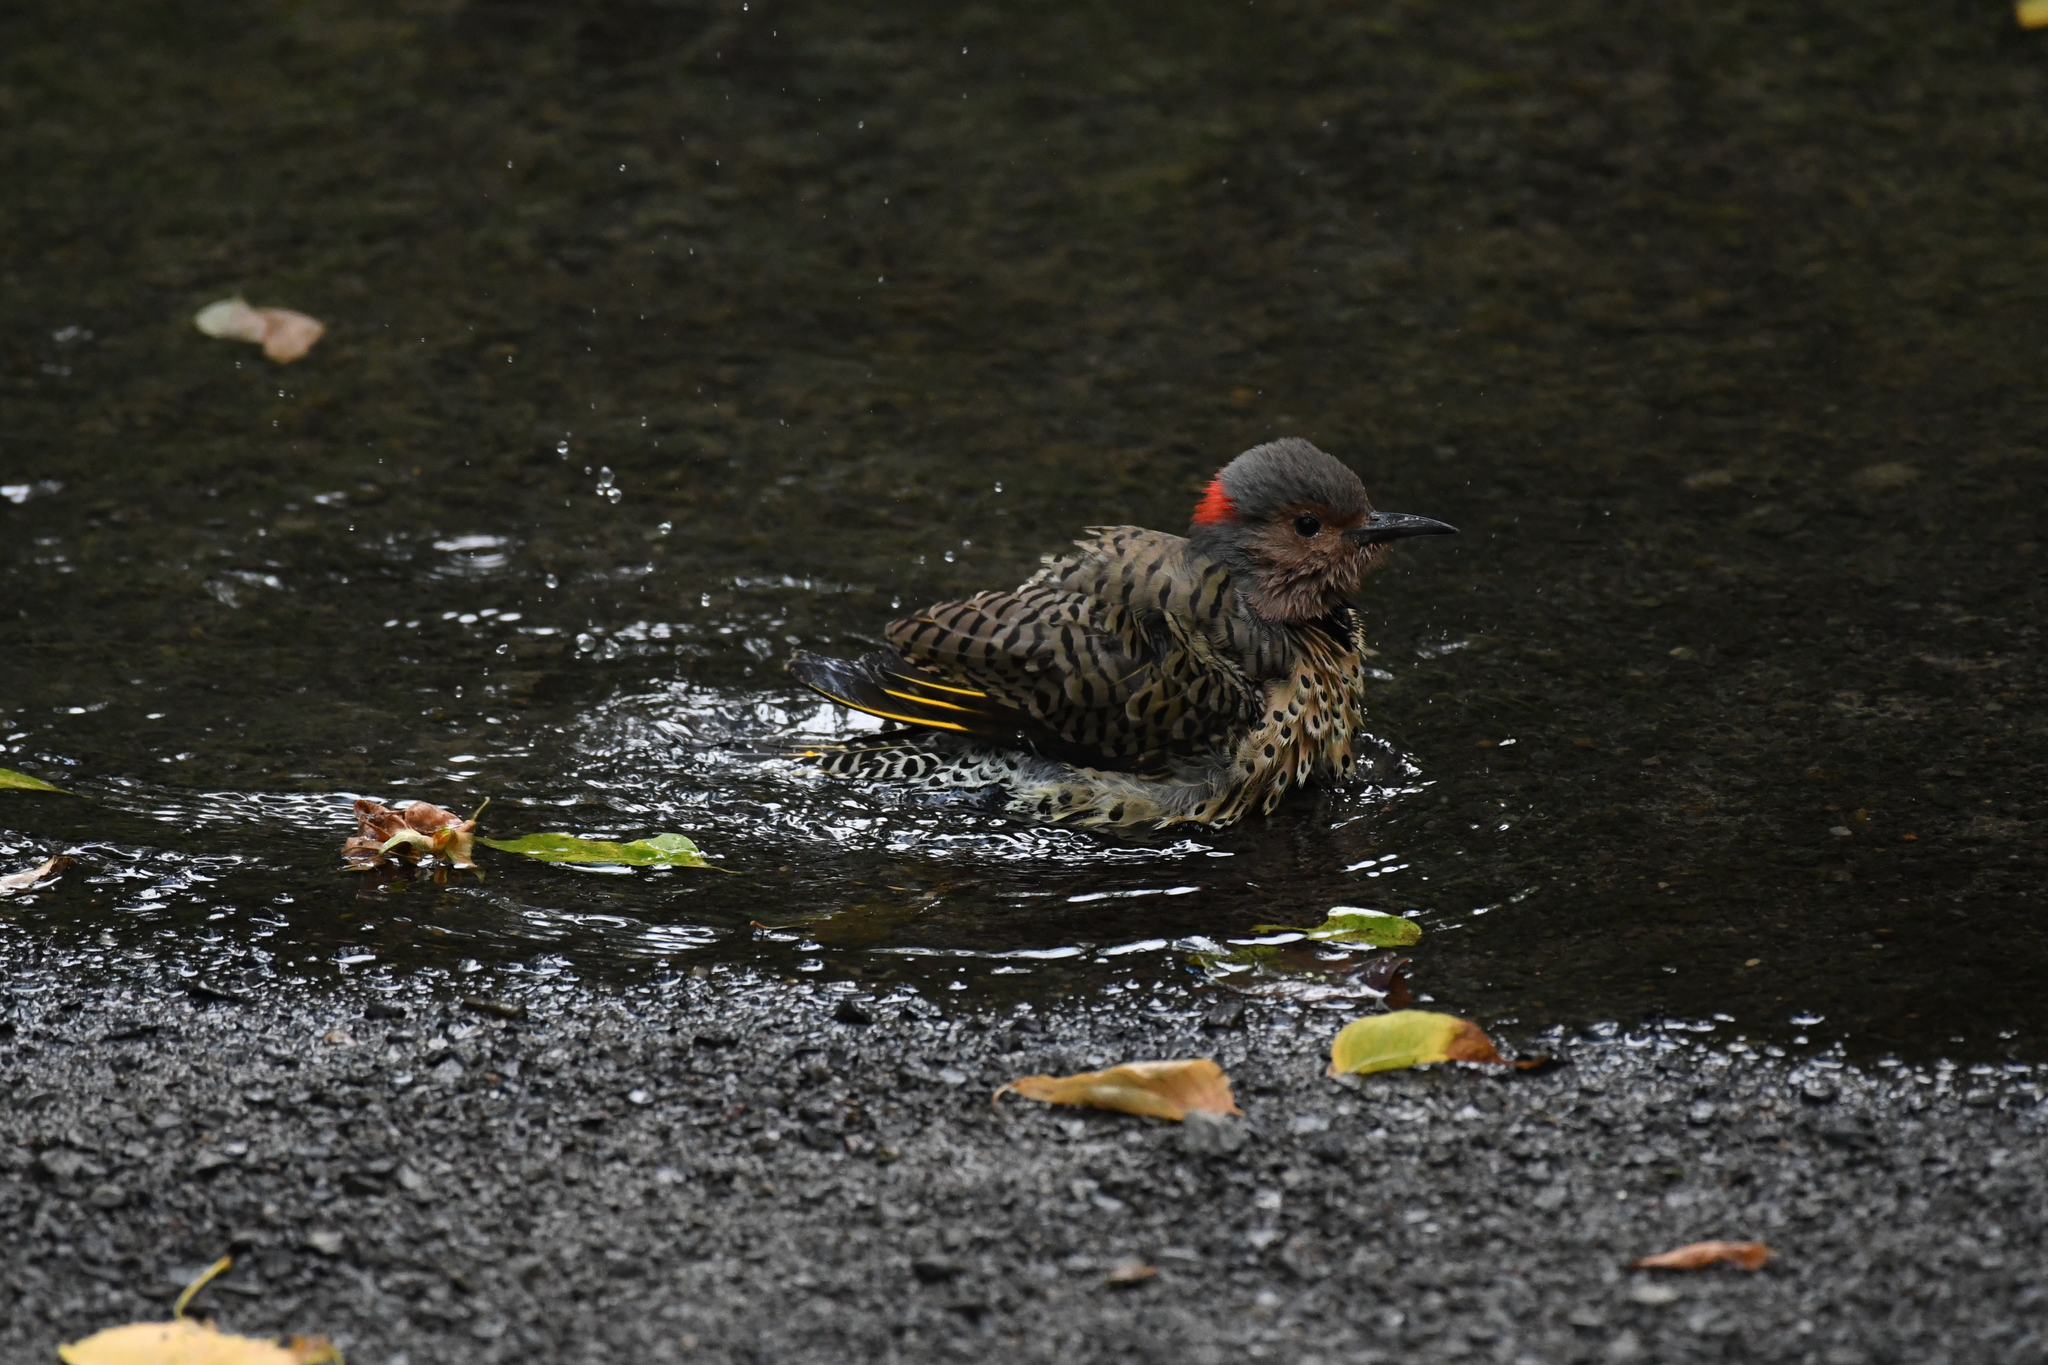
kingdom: Animalia
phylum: Chordata
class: Aves
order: Piciformes
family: Picidae
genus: Colaptes
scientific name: Colaptes auratus
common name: Northern flicker
